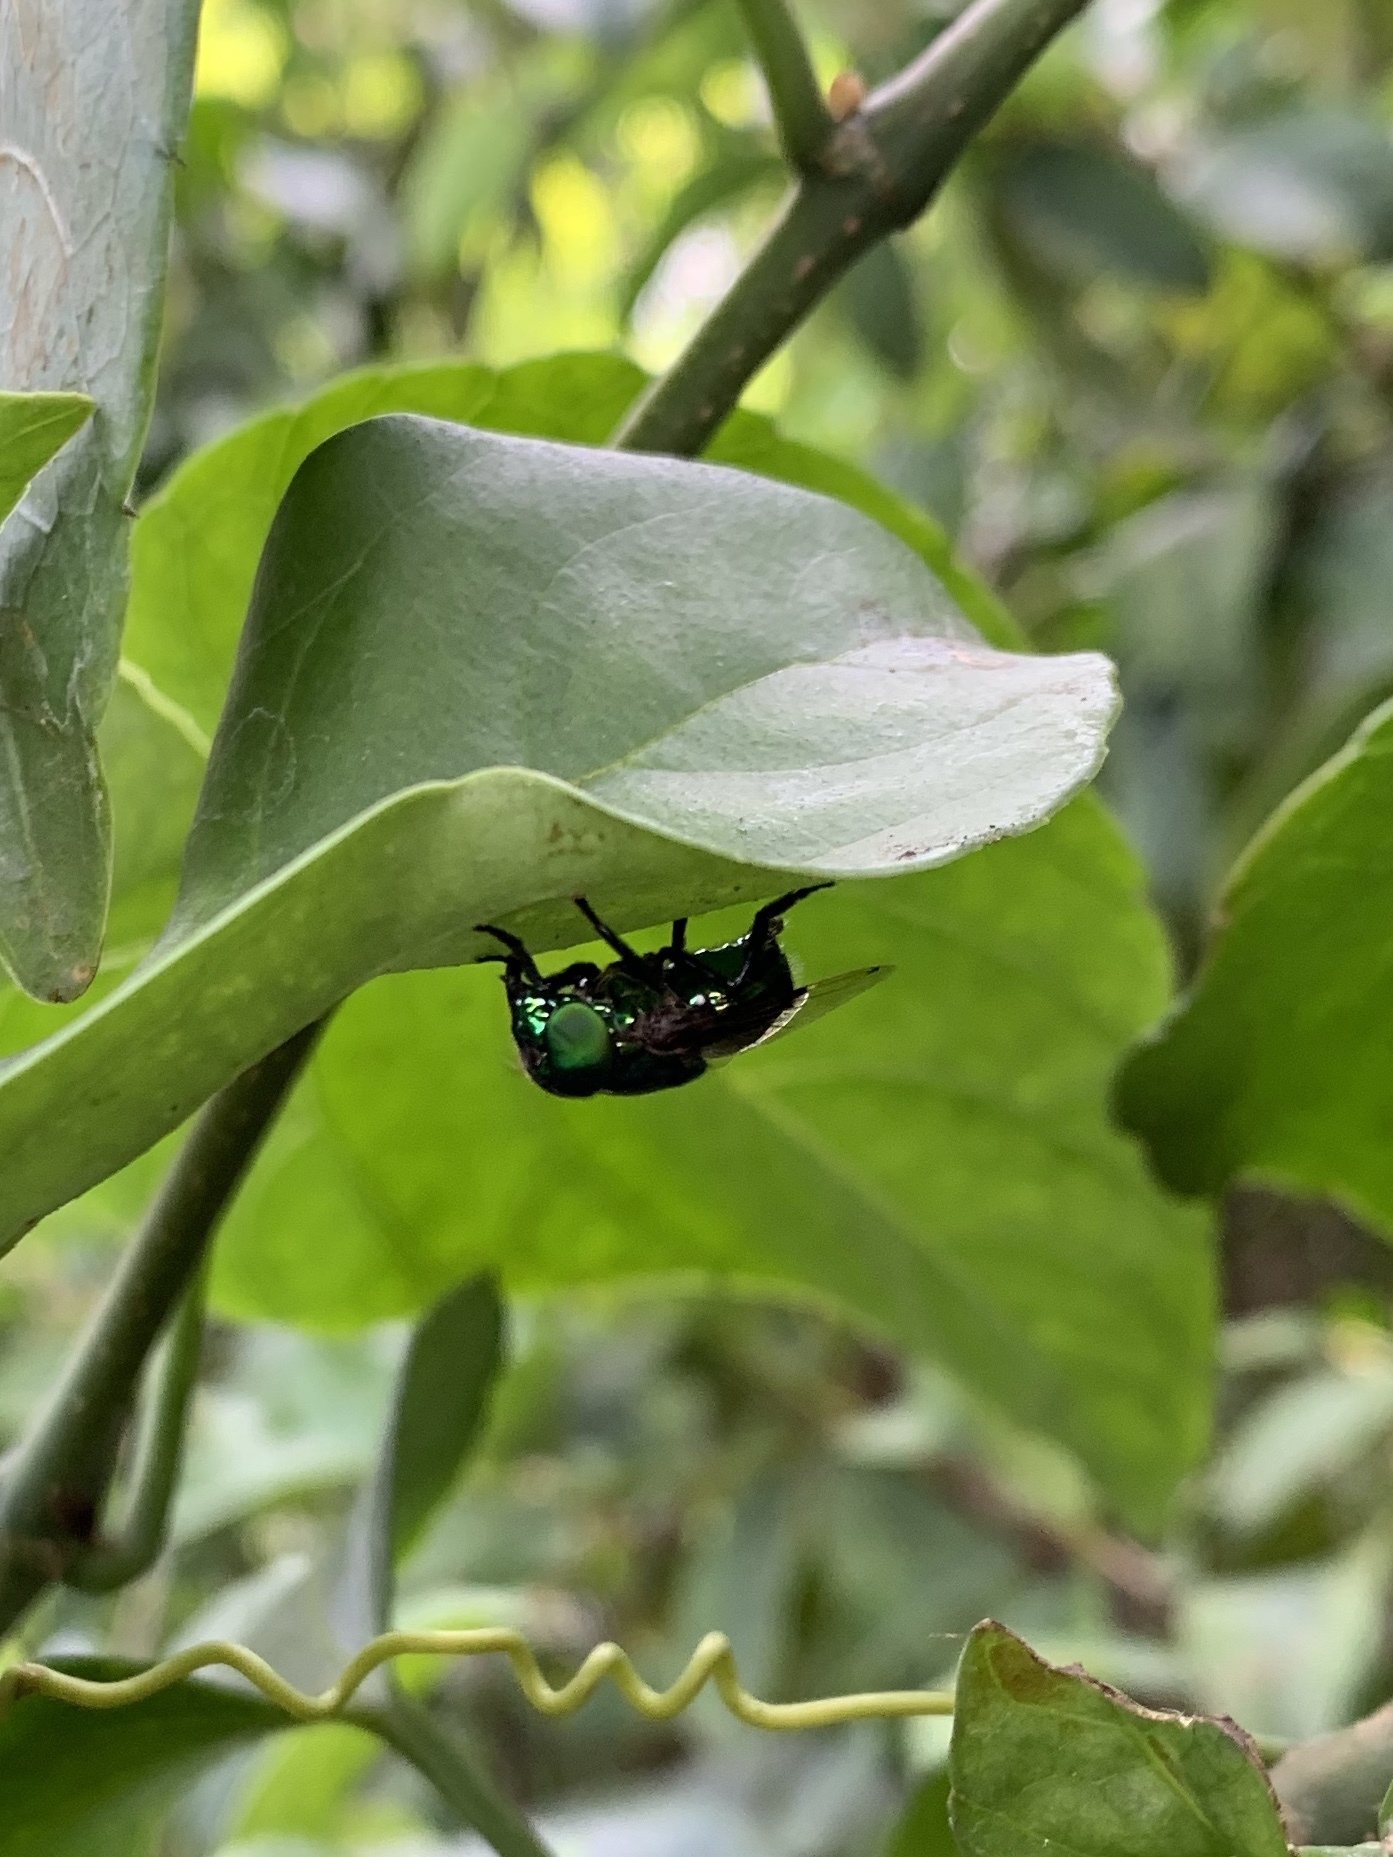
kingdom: Animalia
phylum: Arthropoda
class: Insecta
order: Diptera
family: Syrphidae
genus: Ornidia
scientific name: Ornidia obesa
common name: Syrphid fly
